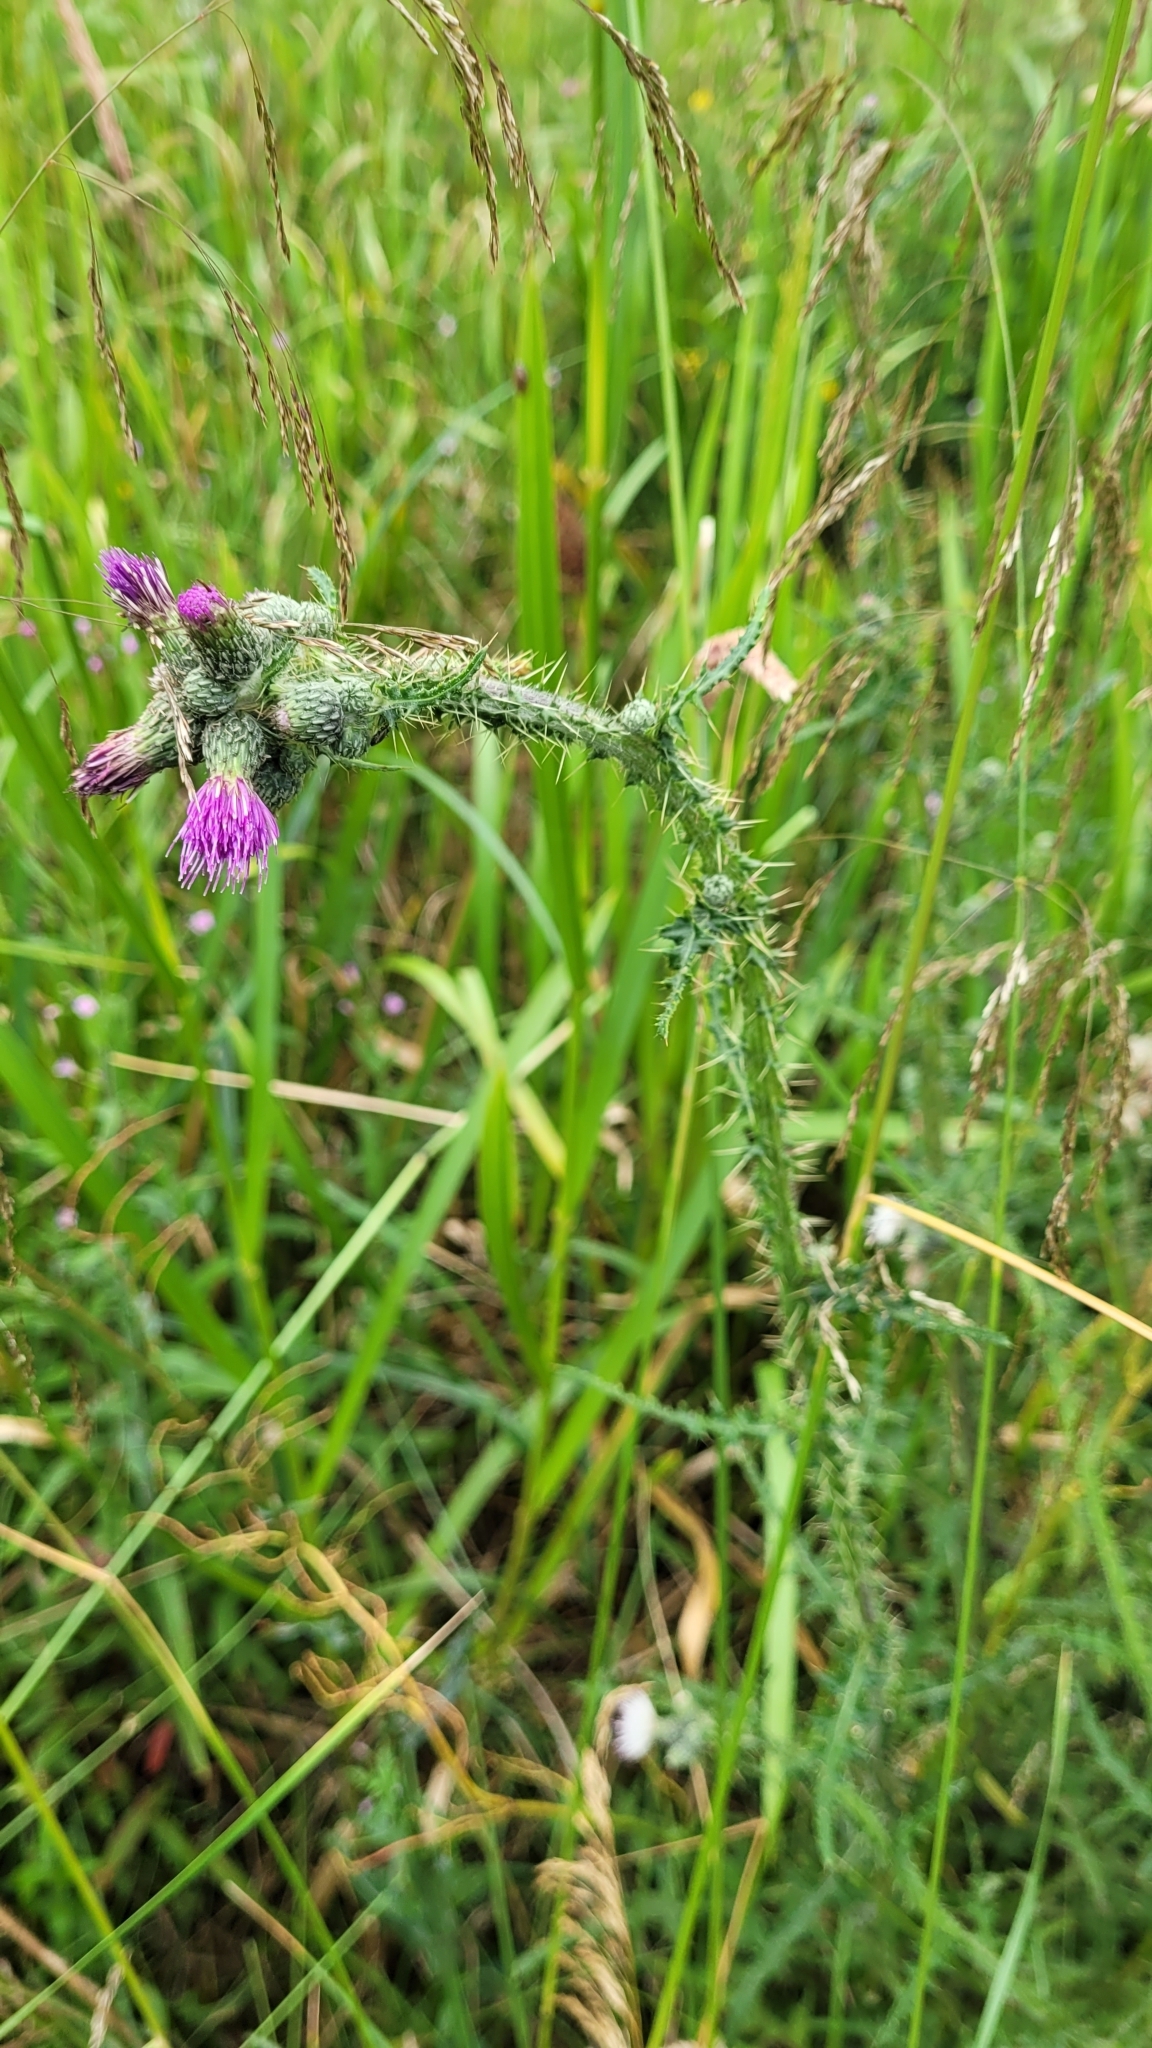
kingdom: Plantae
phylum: Tracheophyta
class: Magnoliopsida
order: Asterales
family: Asteraceae
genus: Cirsium
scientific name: Cirsium palustre
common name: Marsh thistle
